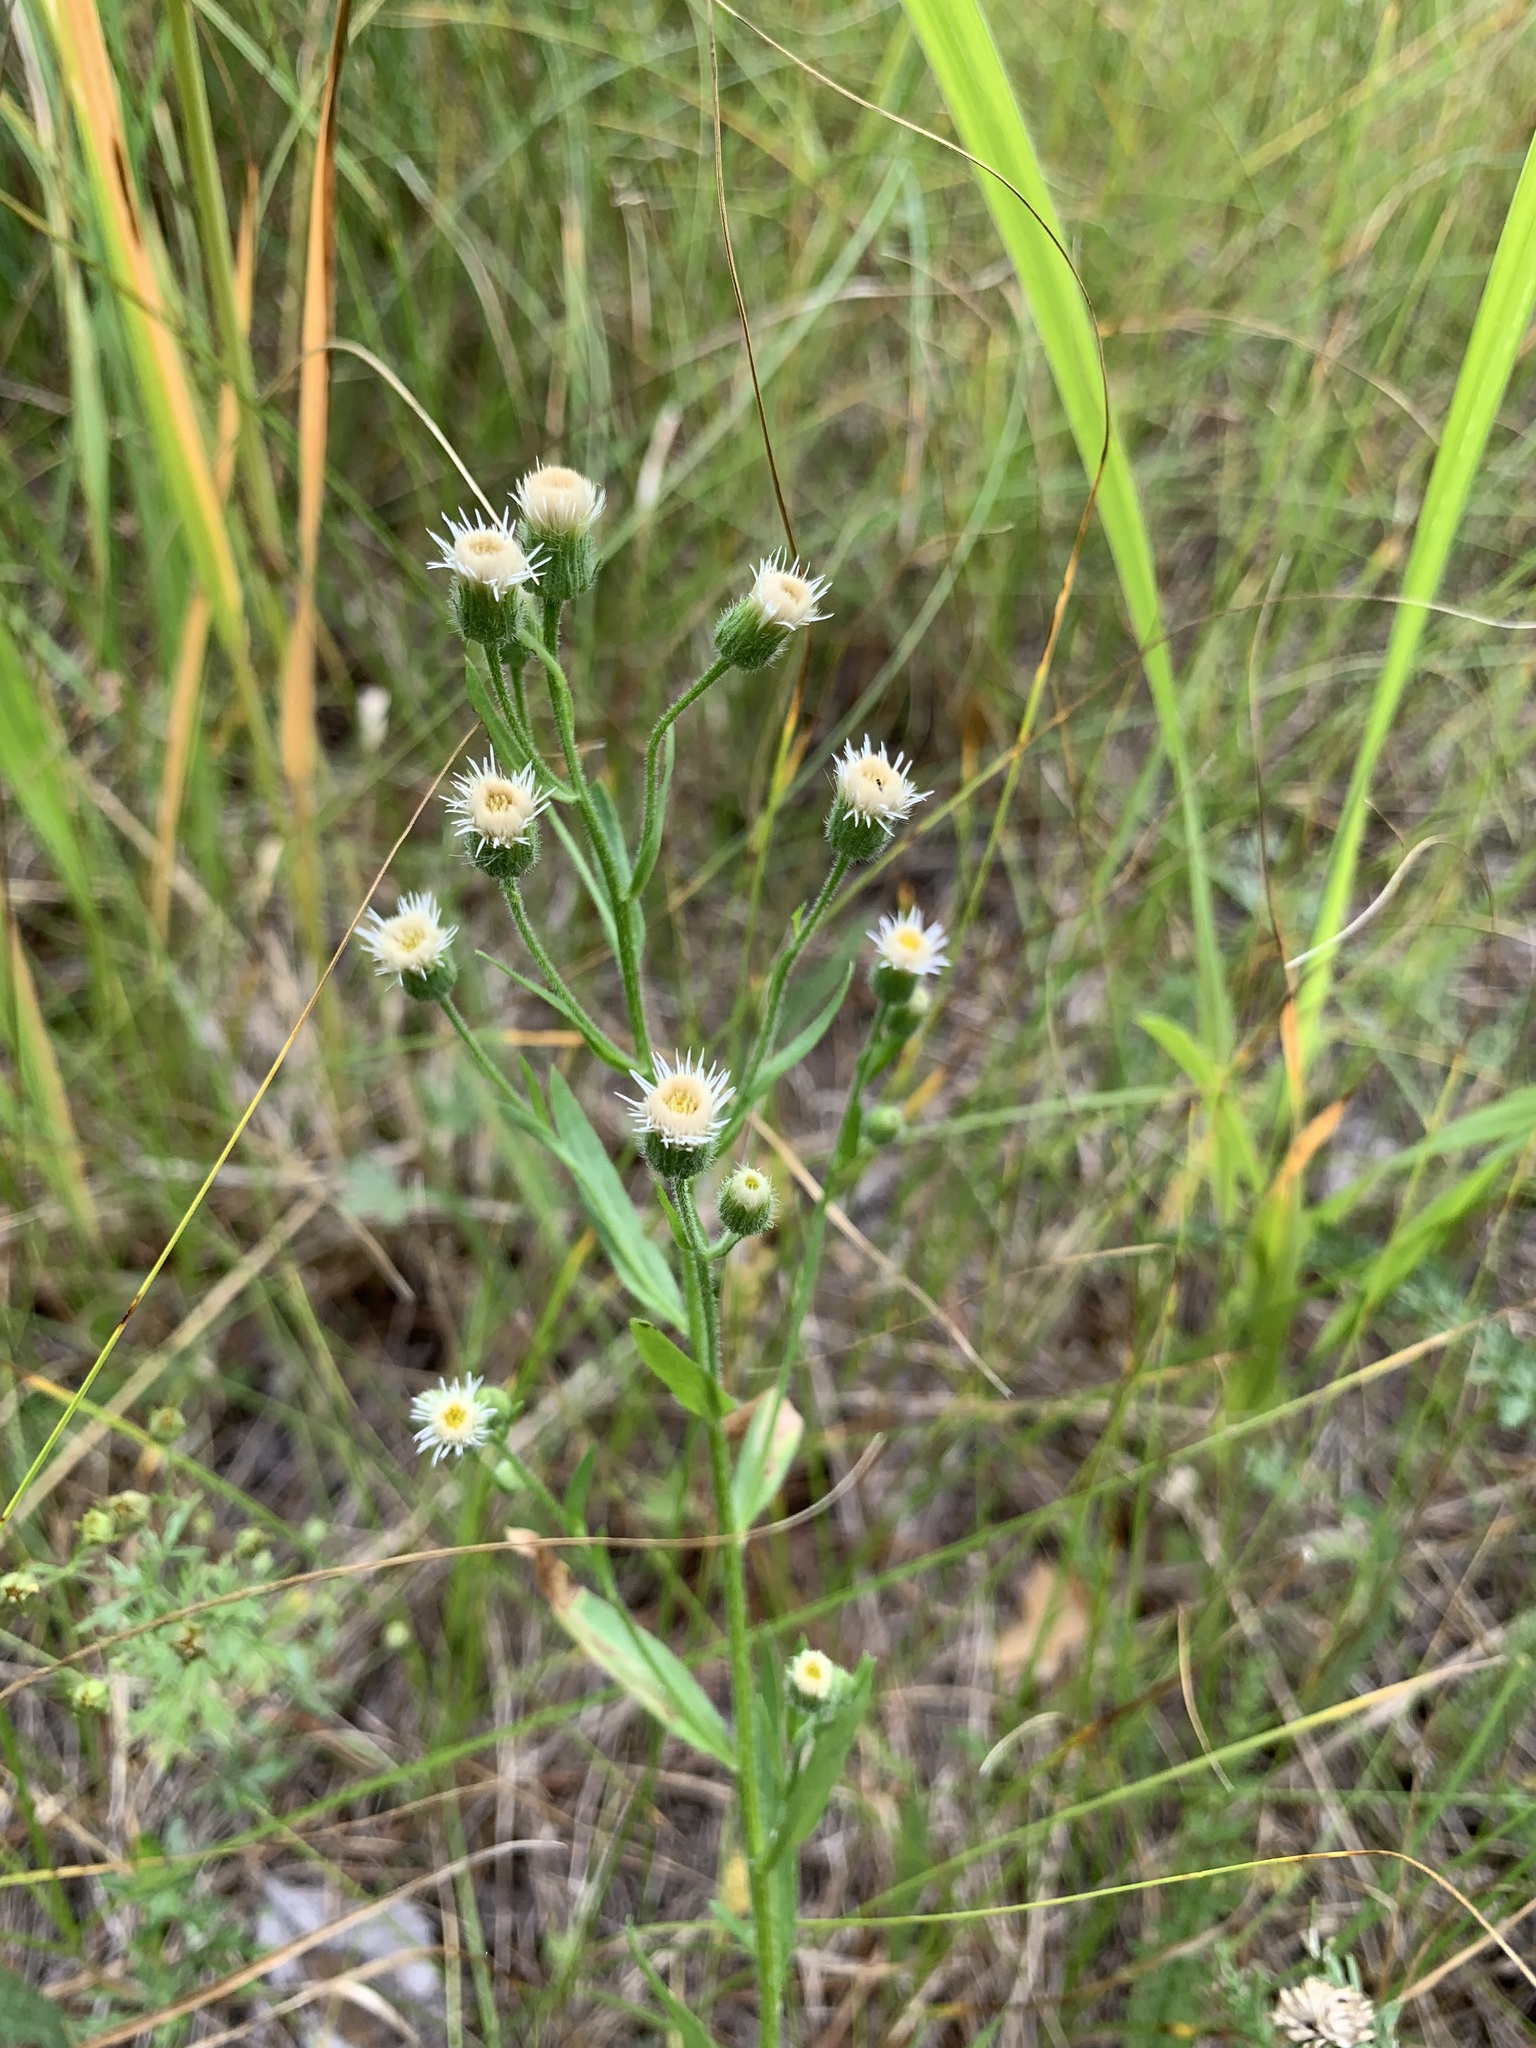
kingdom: Plantae
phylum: Tracheophyta
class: Magnoliopsida
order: Asterales
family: Asteraceae
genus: Erigeron
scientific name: Erigeron acris
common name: Blue fleabane
